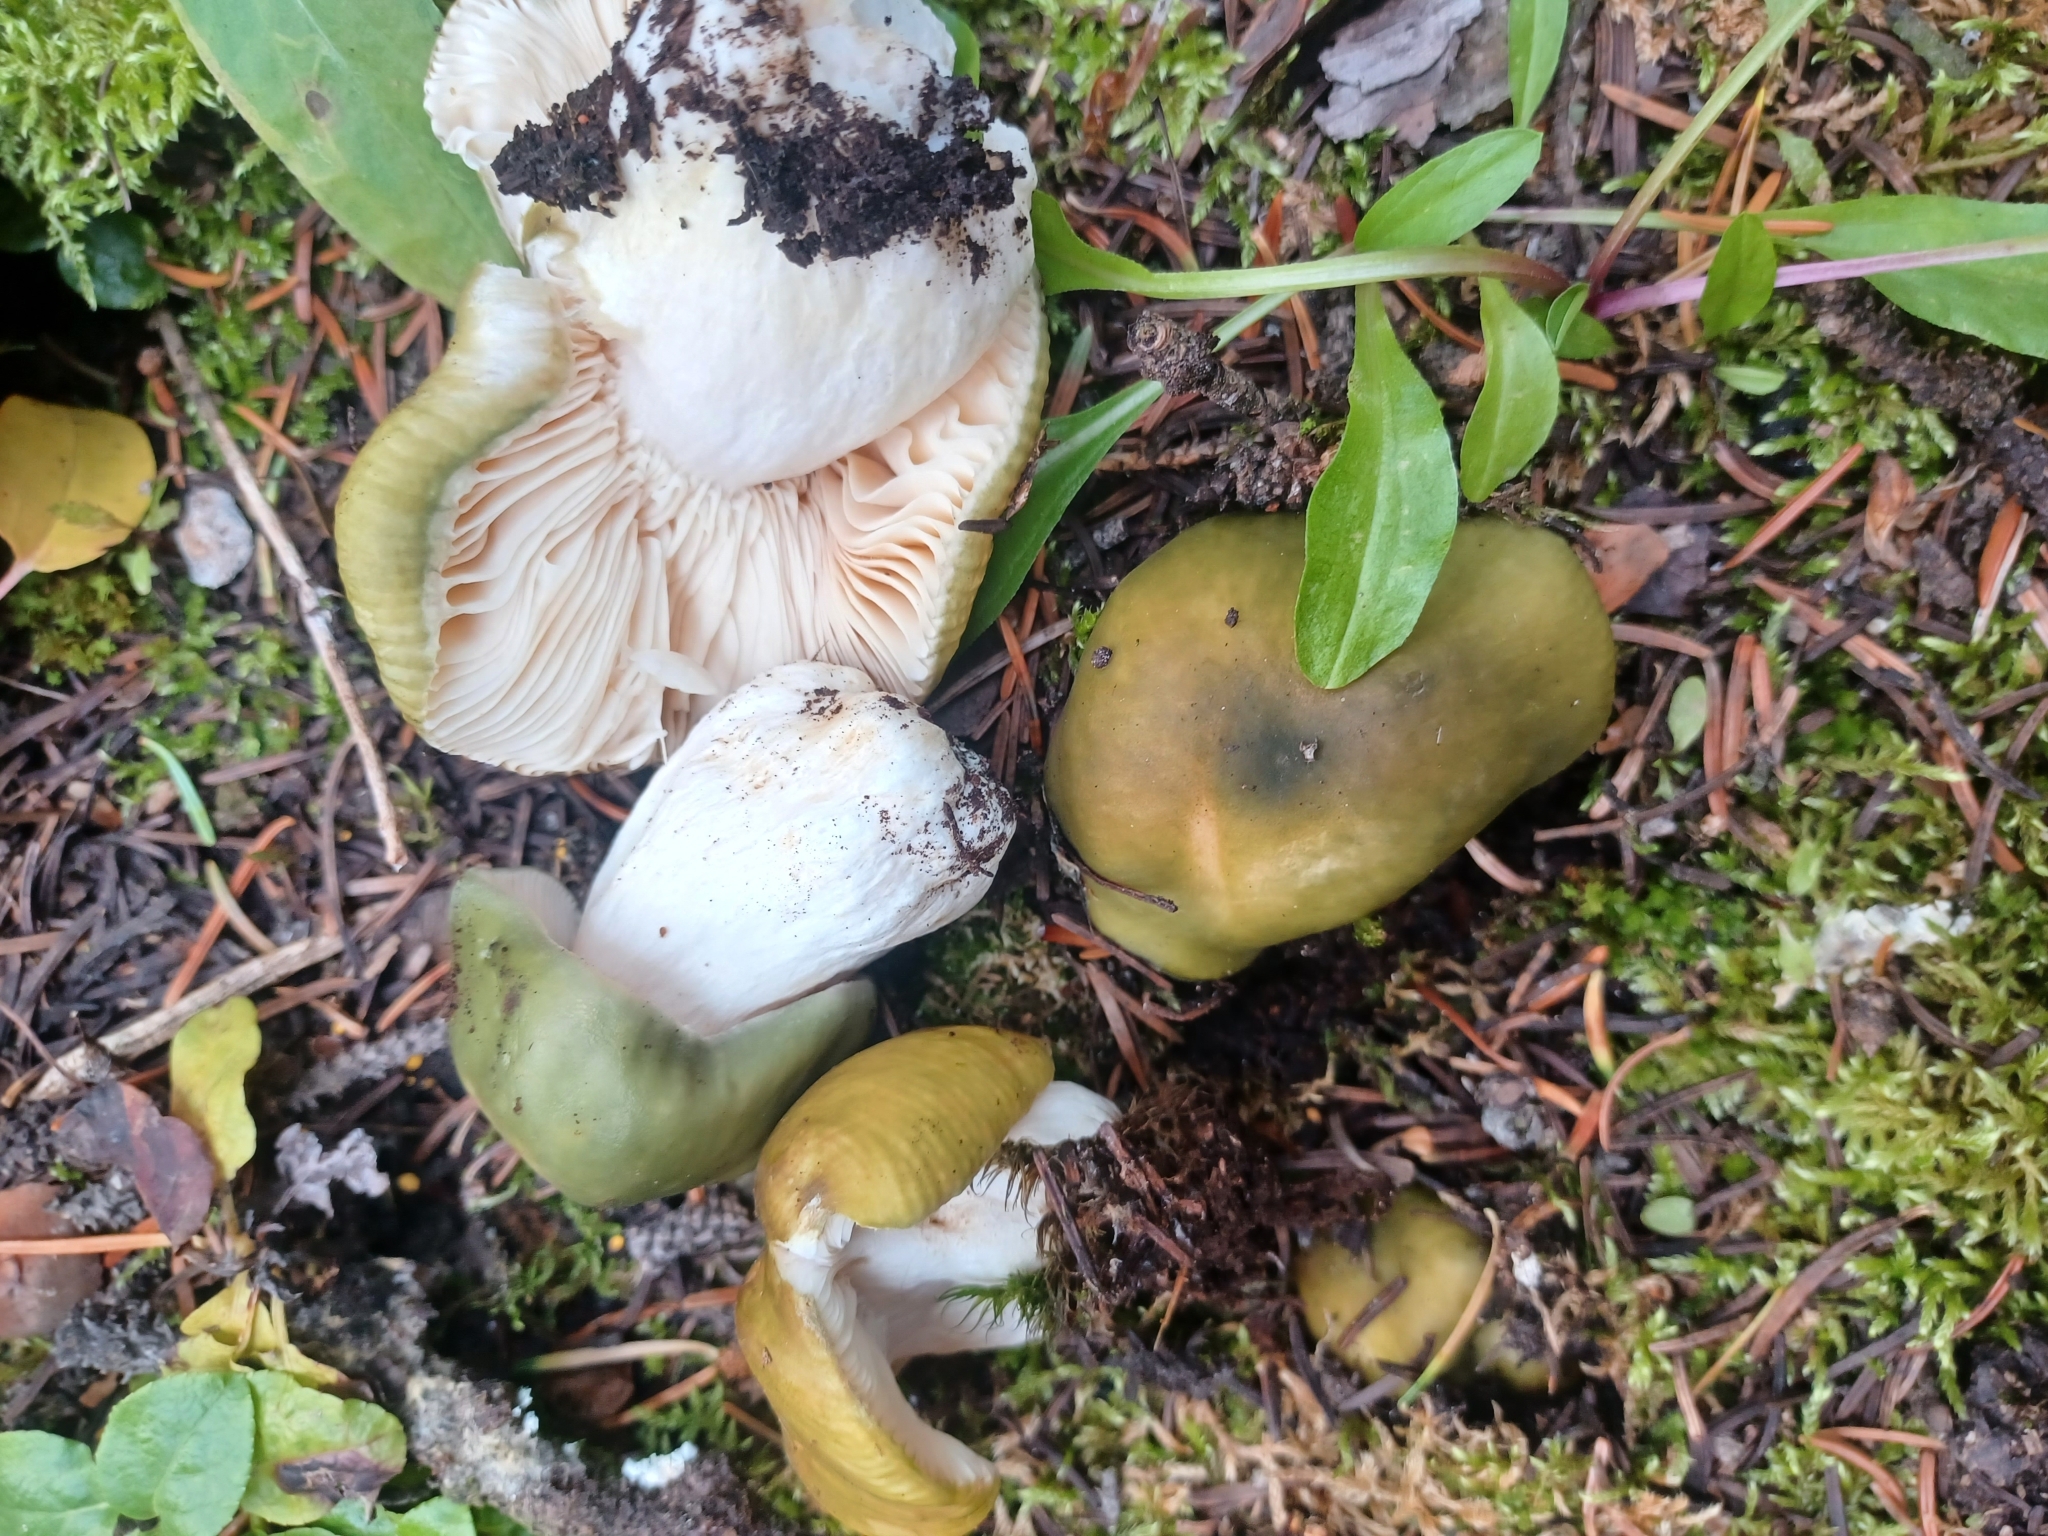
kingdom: Fungi
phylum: Basidiomycota
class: Agaricomycetes
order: Russulales
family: Russulaceae
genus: Russula
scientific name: Russula aeruginea
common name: Green brittlegill
